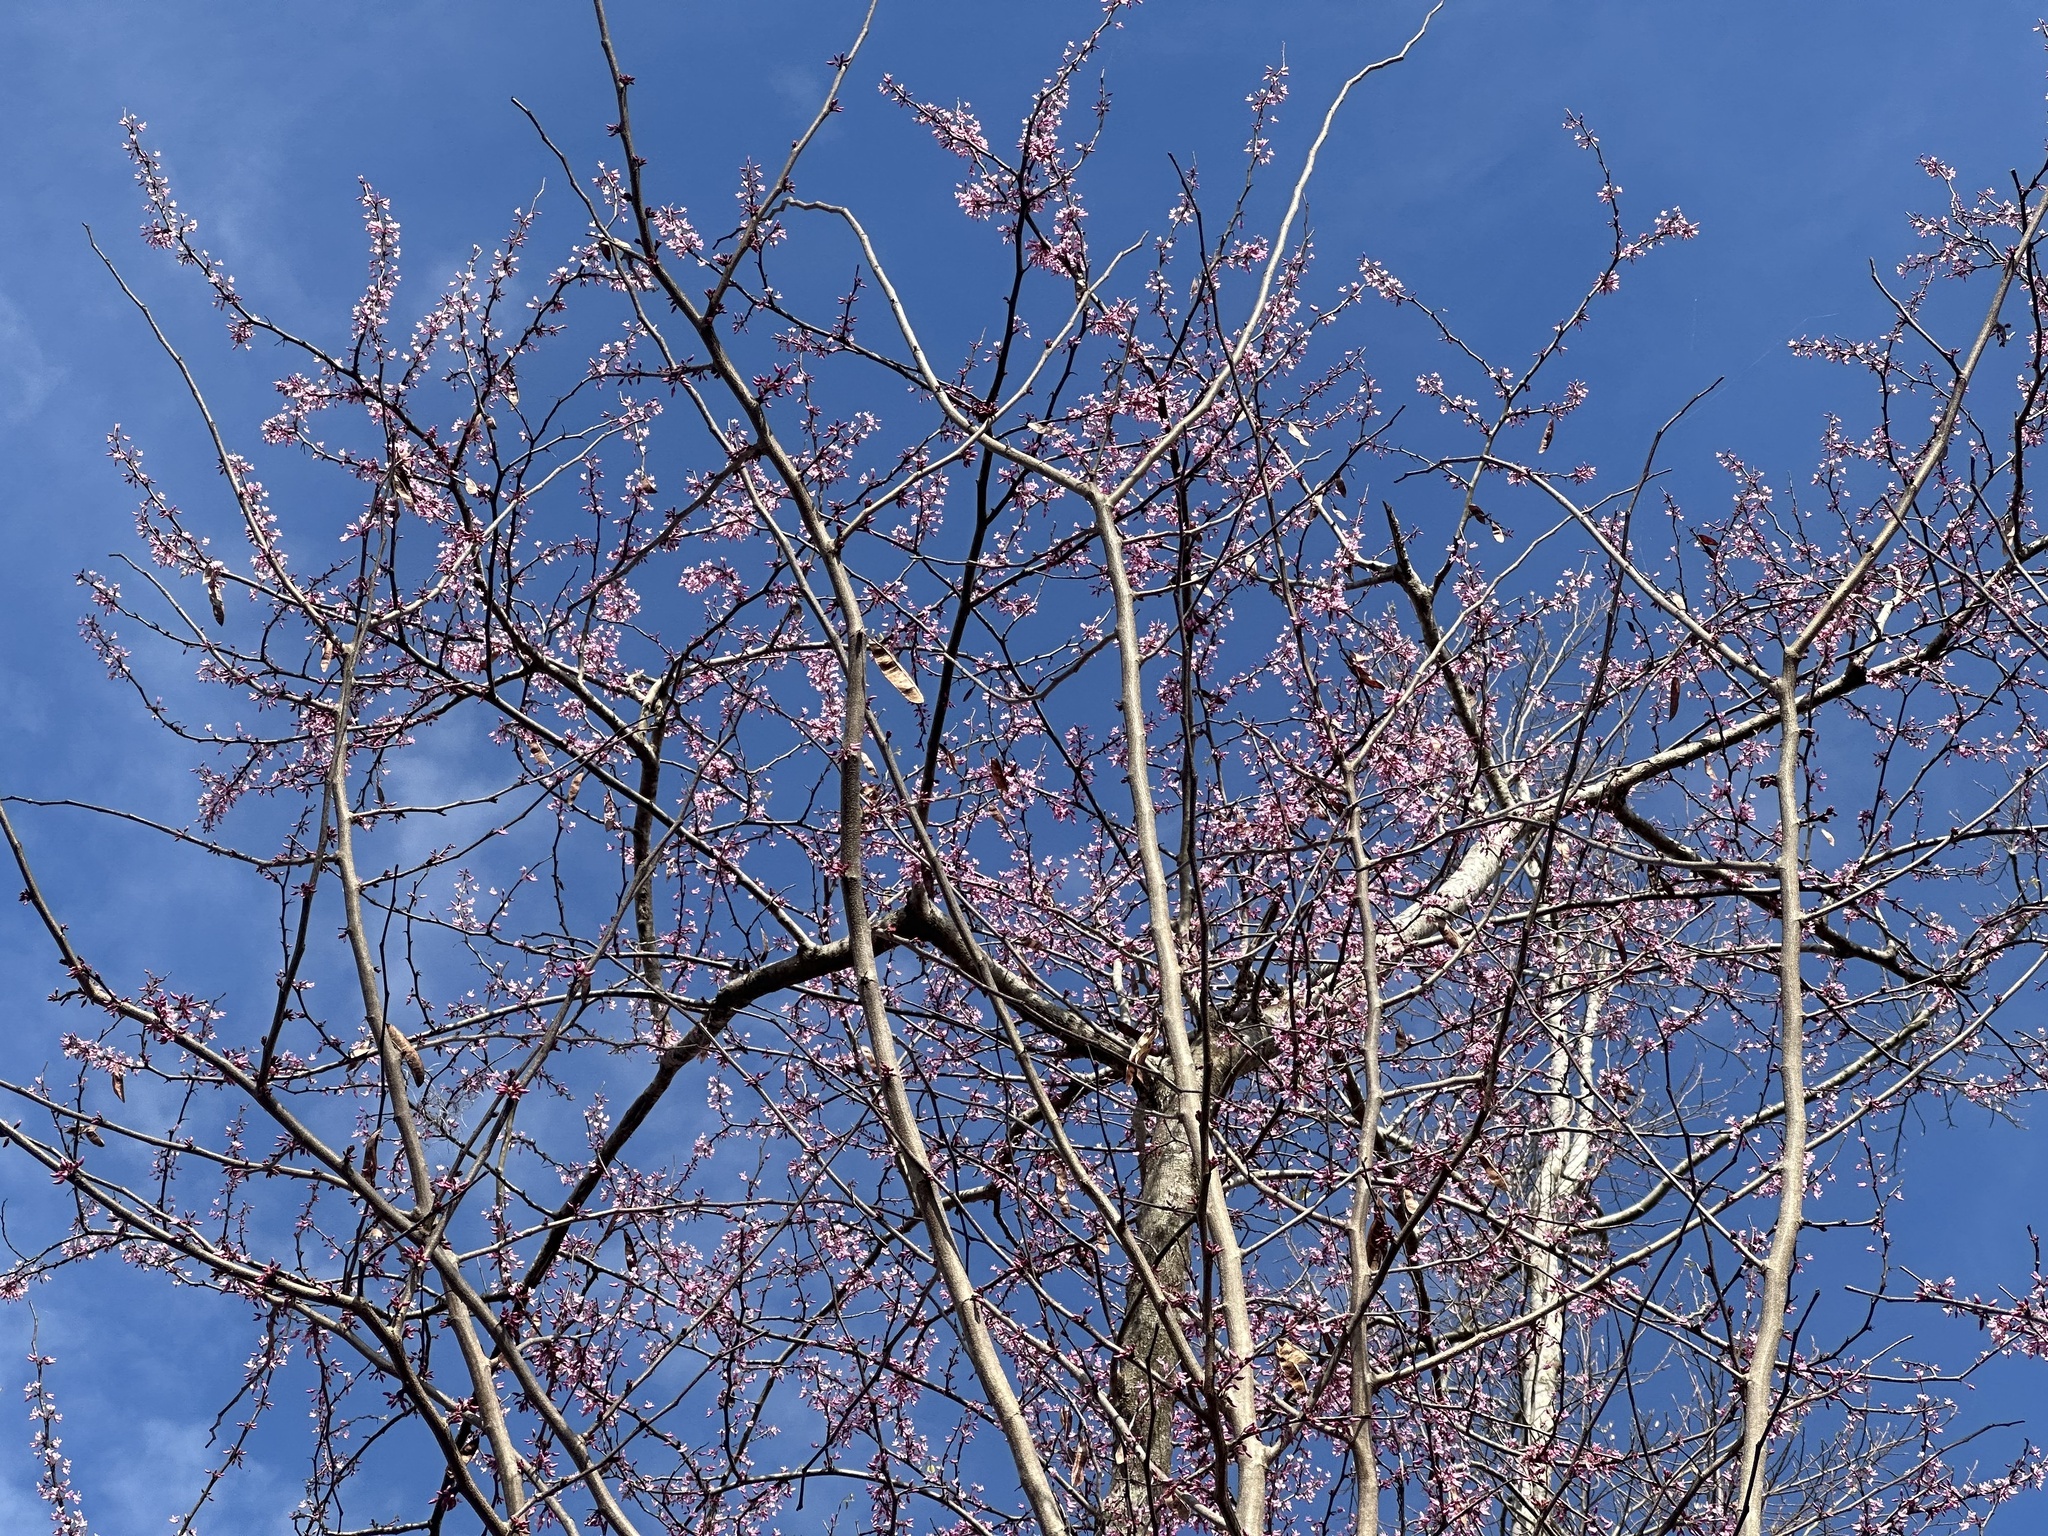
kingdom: Plantae
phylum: Tracheophyta
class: Magnoliopsida
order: Fabales
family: Fabaceae
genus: Cercis
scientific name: Cercis canadensis
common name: Eastern redbud
